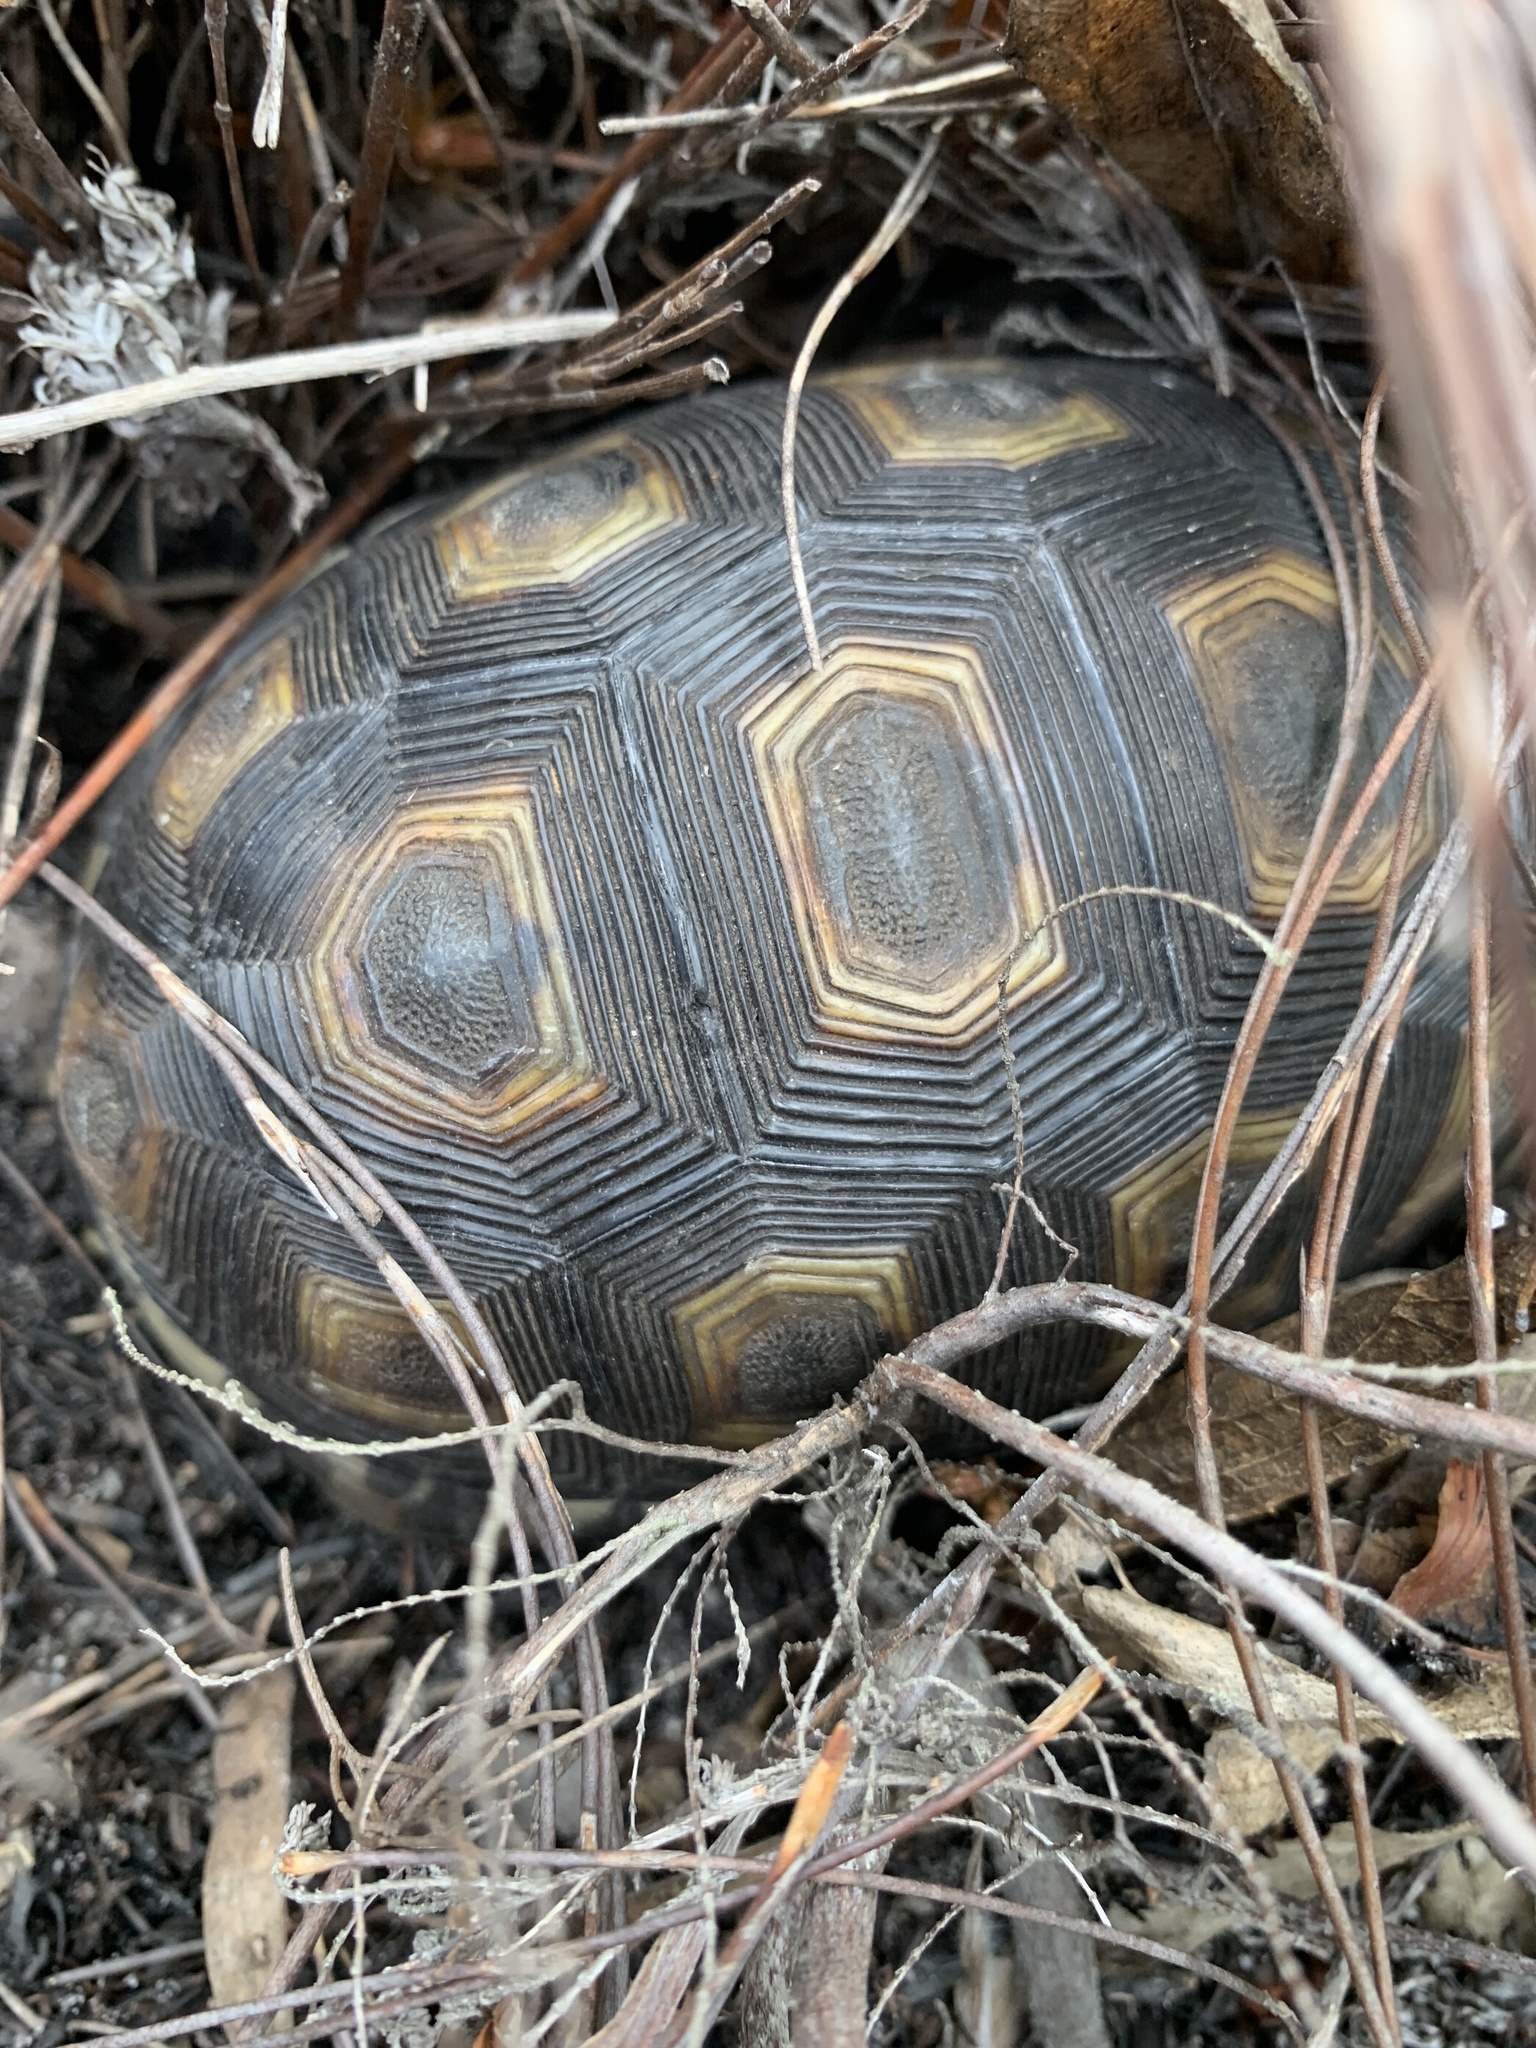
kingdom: Animalia
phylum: Chordata
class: Testudines
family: Testudinidae
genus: Chersina
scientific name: Chersina angulata
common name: South african bowsprit tortoise
